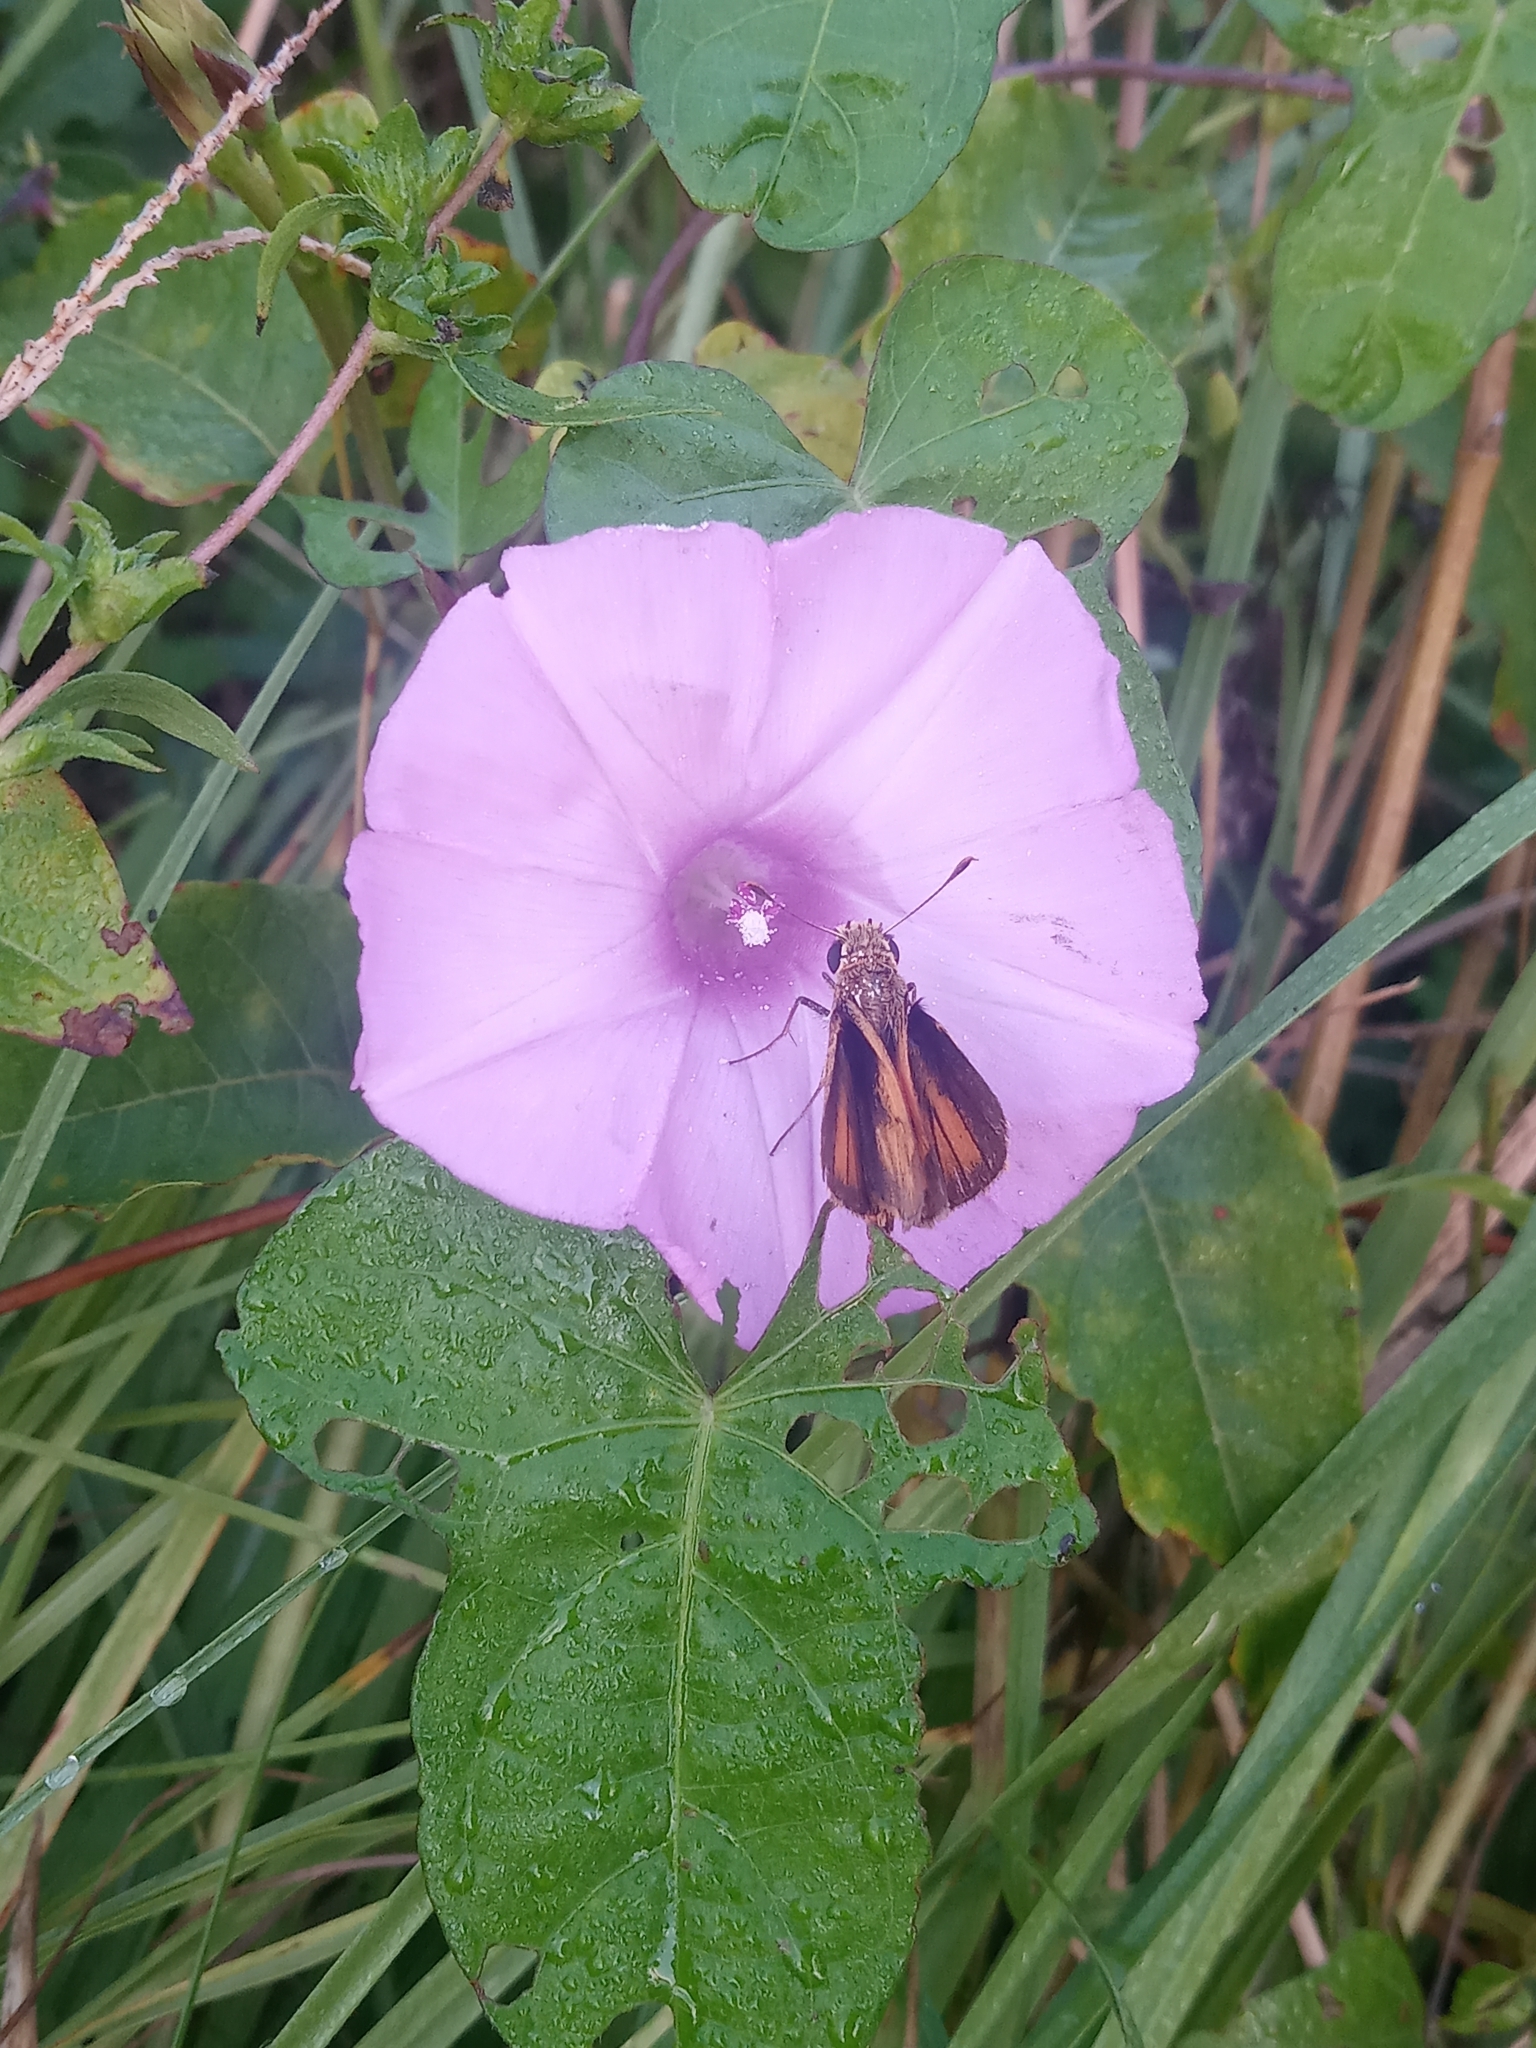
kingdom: Animalia
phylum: Arthropoda
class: Insecta
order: Lepidoptera
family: Hesperiidae
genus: Polites
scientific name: Polites vibex
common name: Whirlabout
